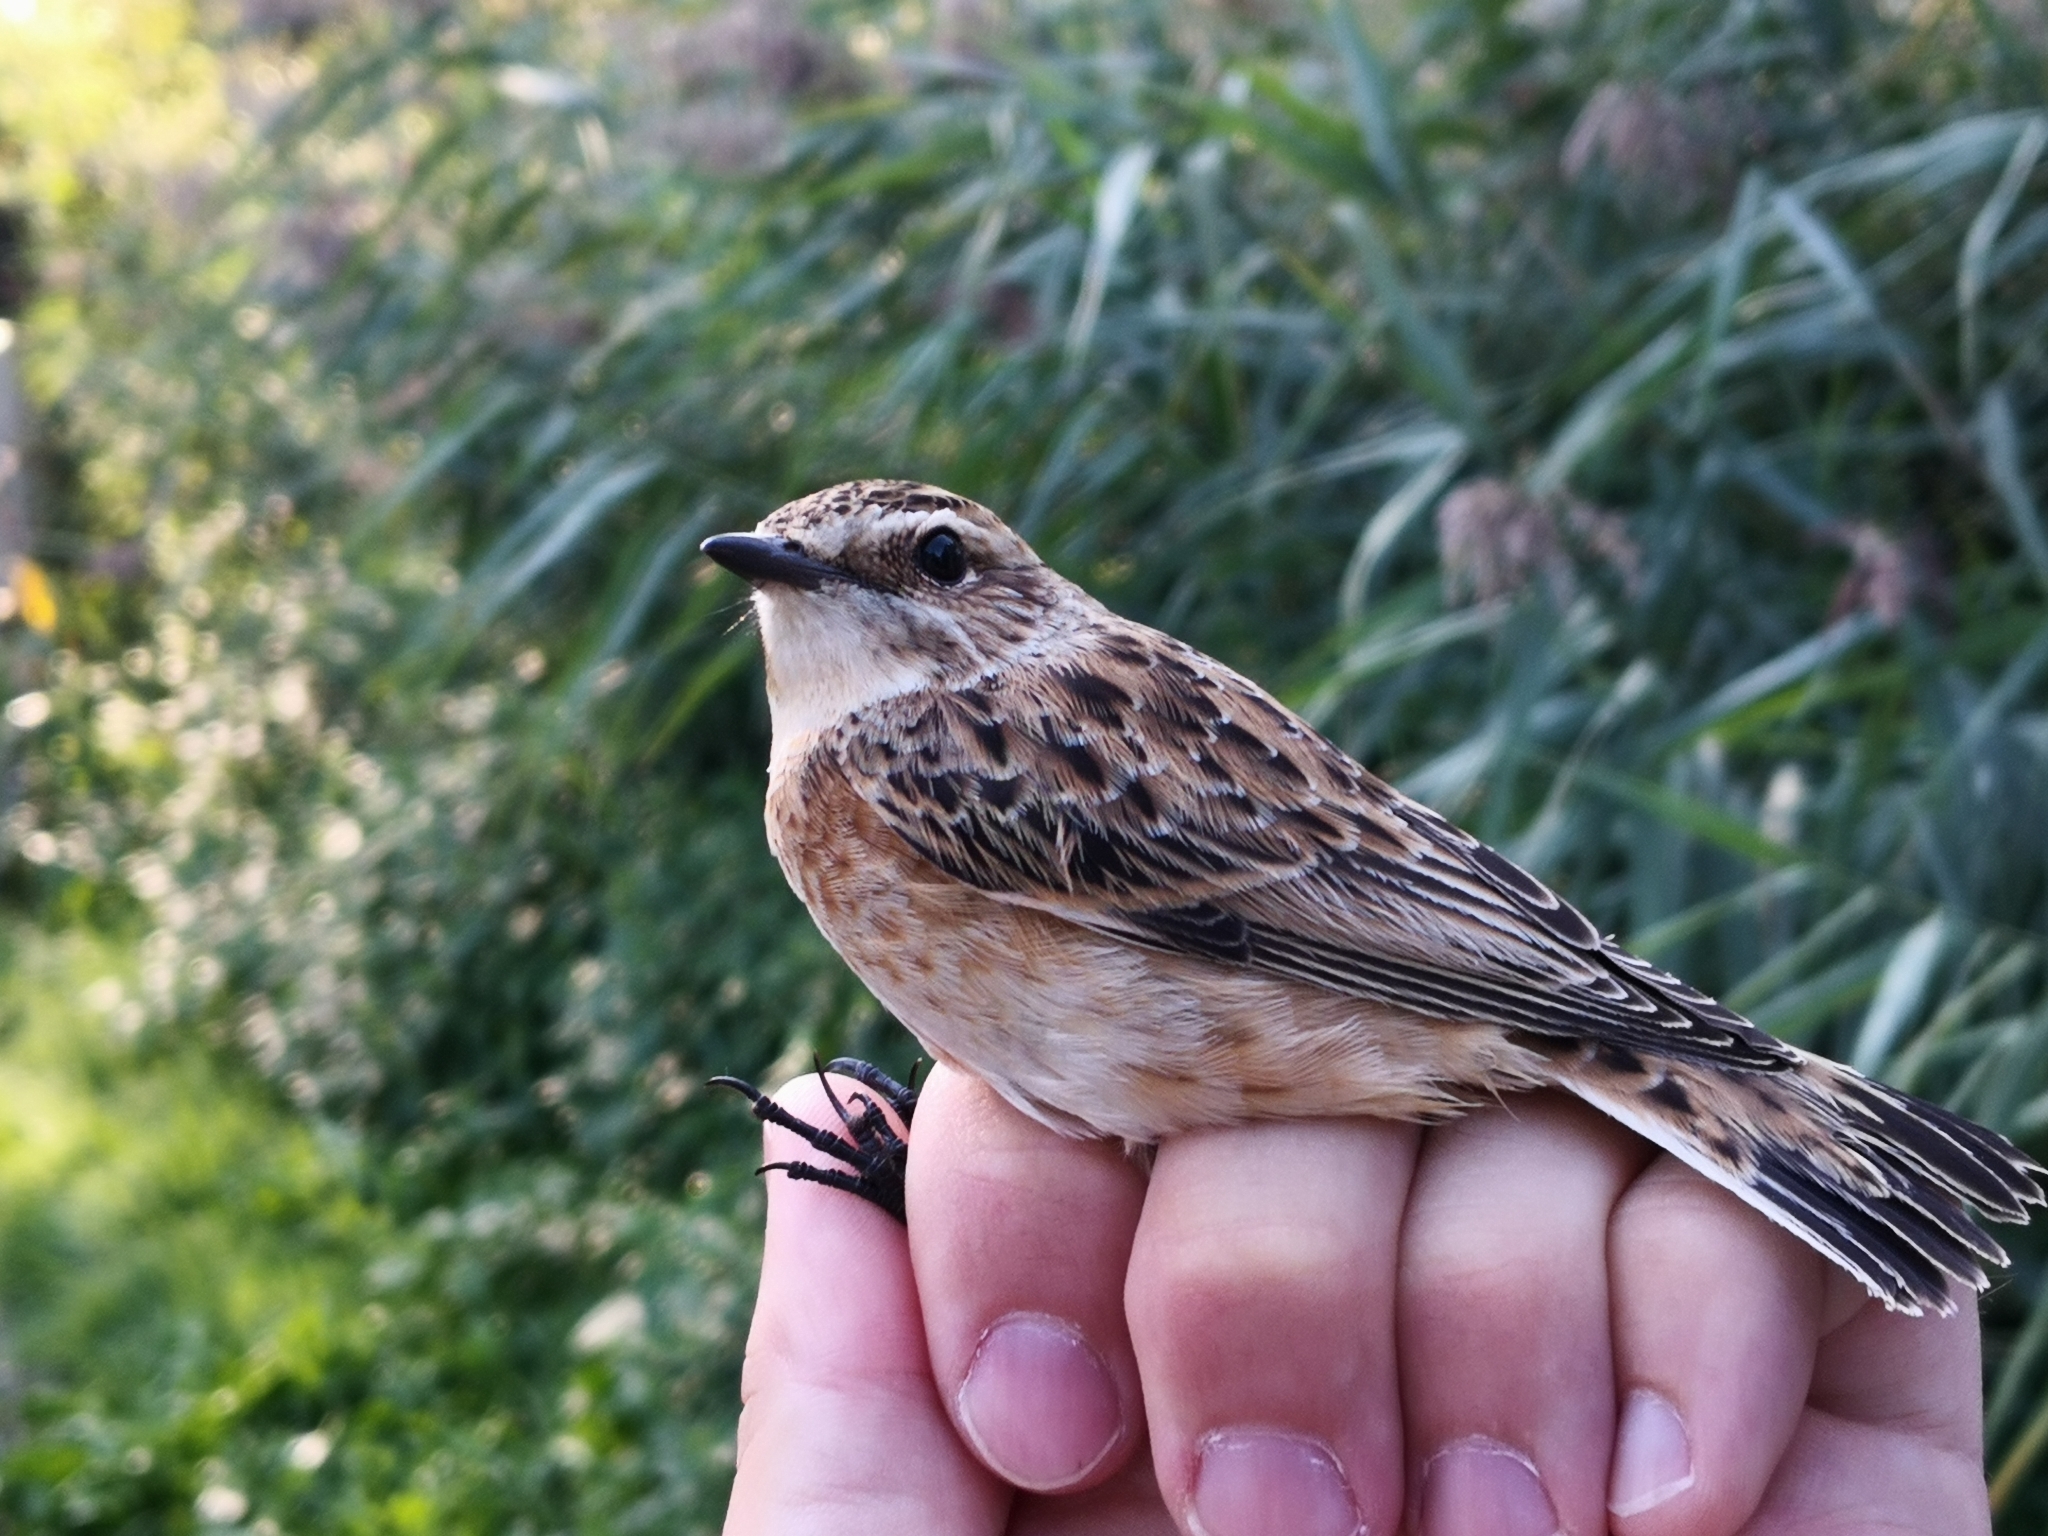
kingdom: Animalia
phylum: Chordata
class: Aves
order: Passeriformes
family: Muscicapidae
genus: Saxicola
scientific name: Saxicola rubetra
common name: Whinchat
